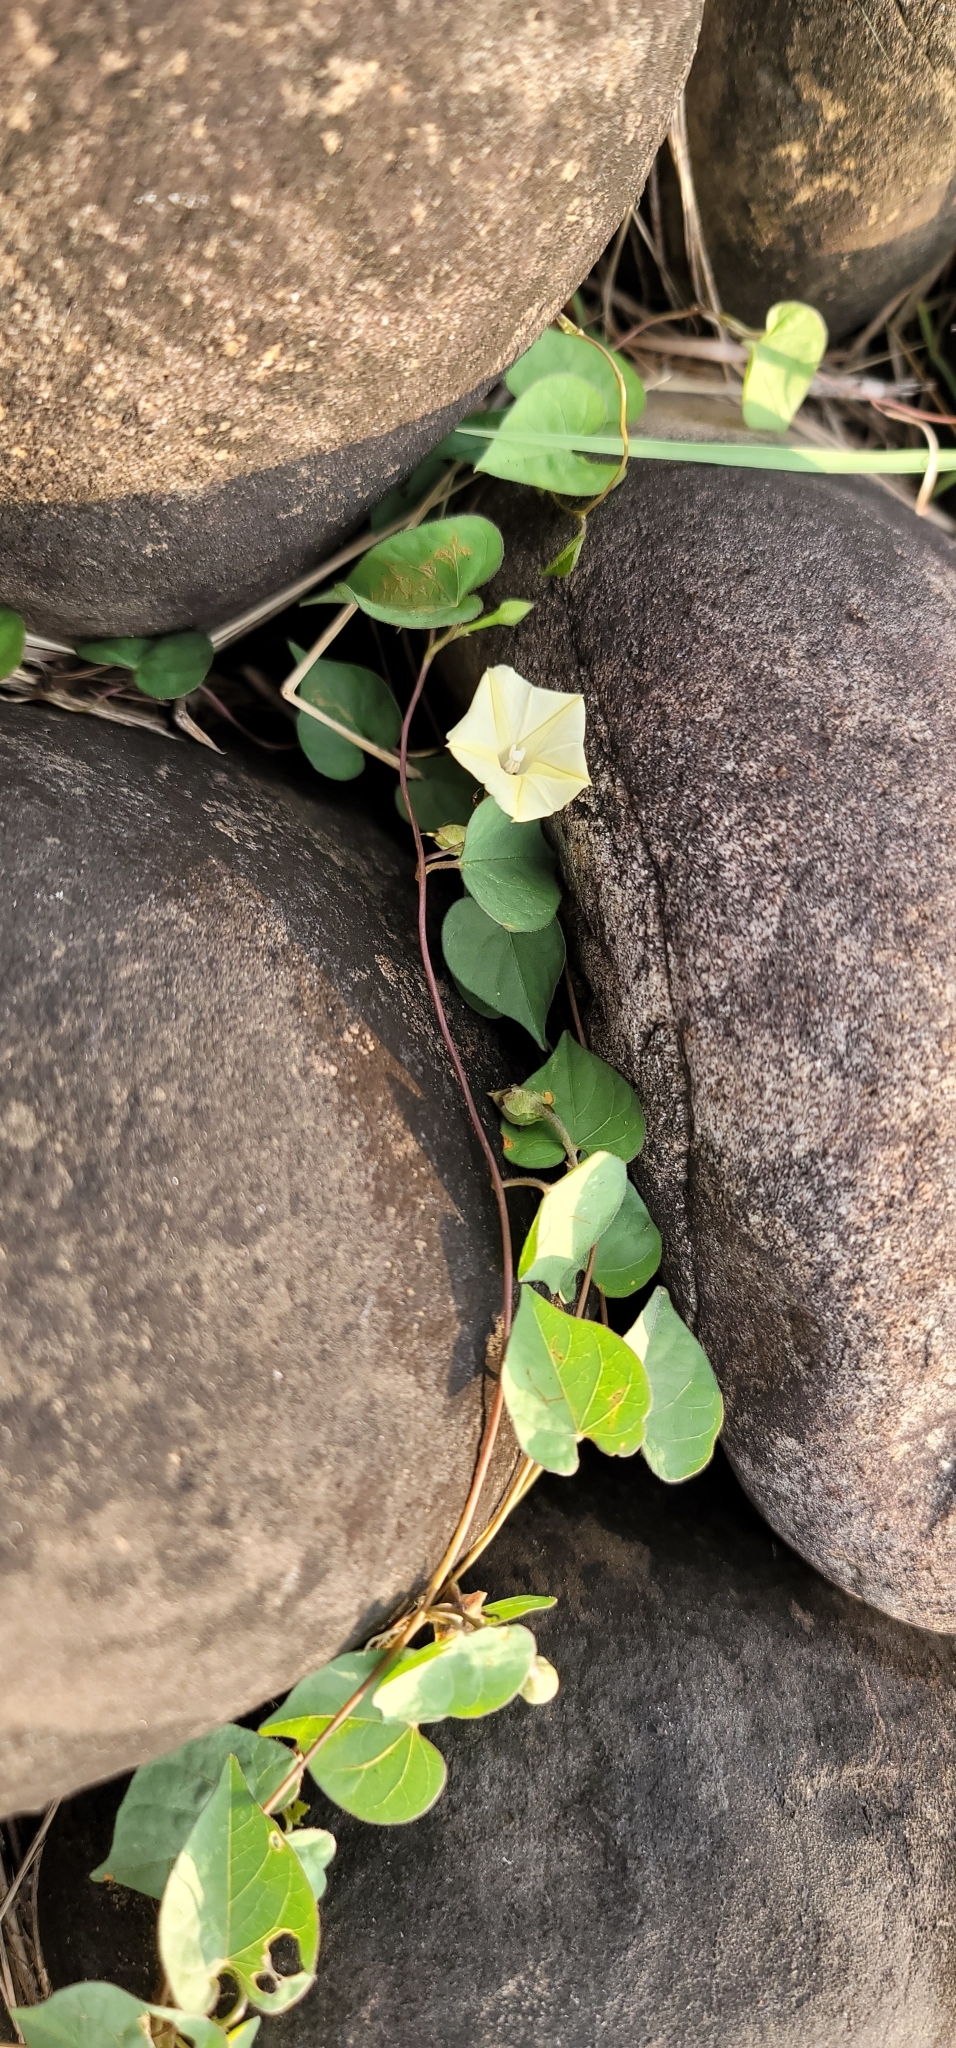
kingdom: Plantae
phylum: Tracheophyta
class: Magnoliopsida
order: Solanales
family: Convolvulaceae
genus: Ipomoea
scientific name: Ipomoea obscura
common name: Obscure morning-glory
